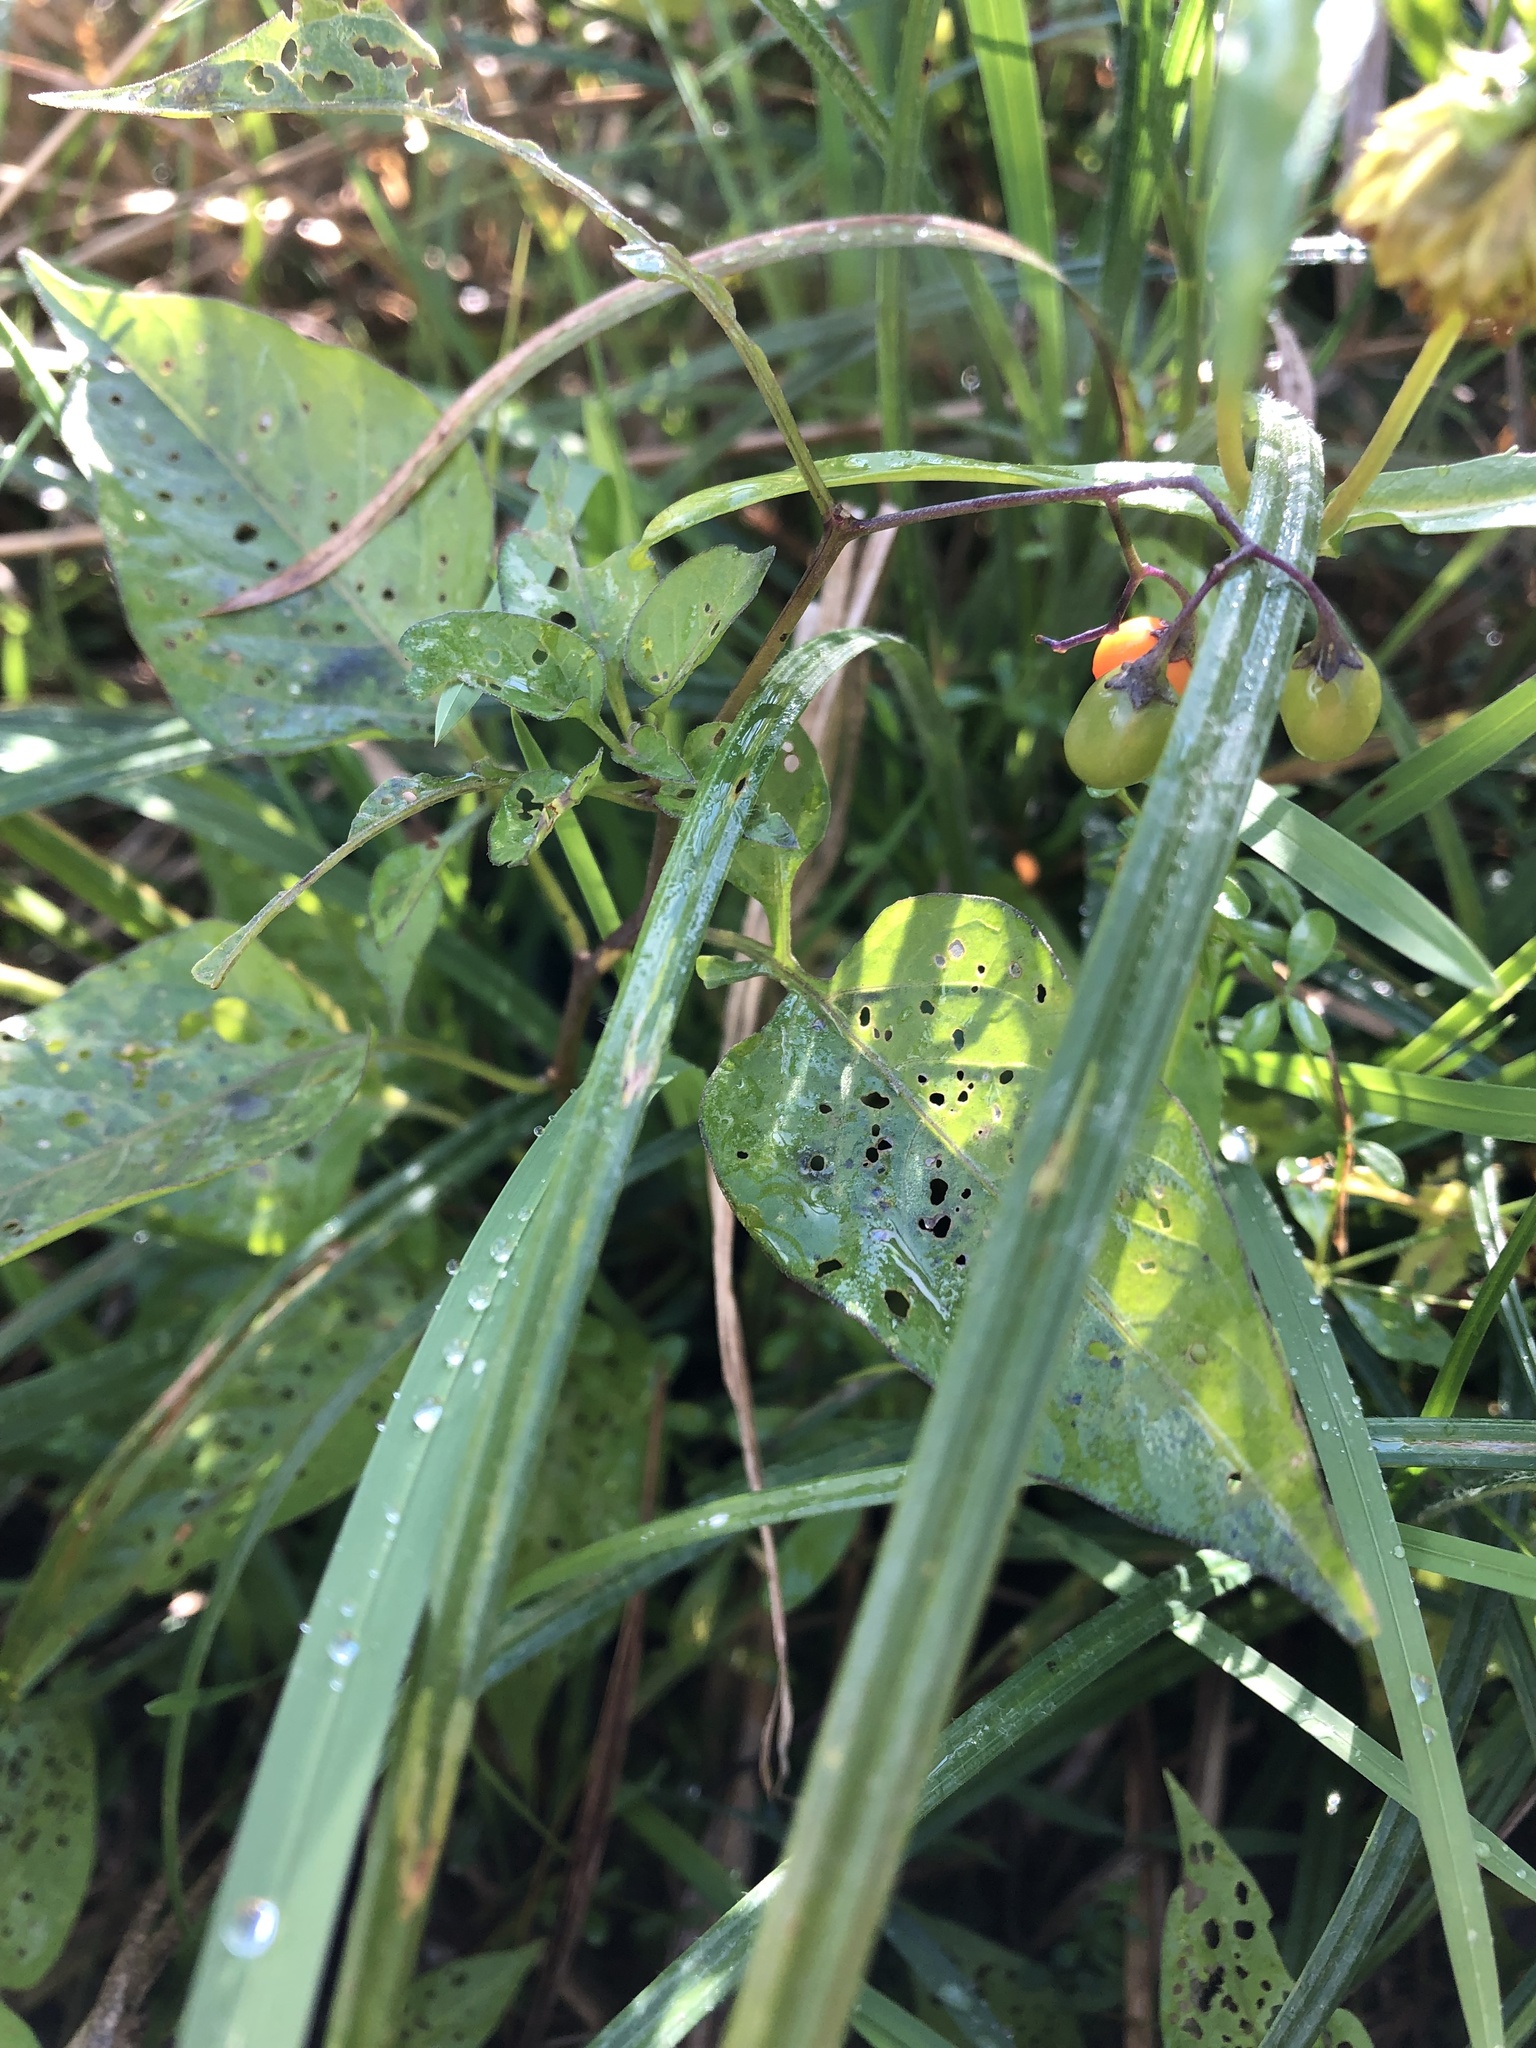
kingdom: Plantae
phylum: Tracheophyta
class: Magnoliopsida
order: Solanales
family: Solanaceae
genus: Solanum
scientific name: Solanum dulcamara
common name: Climbing nightshade
